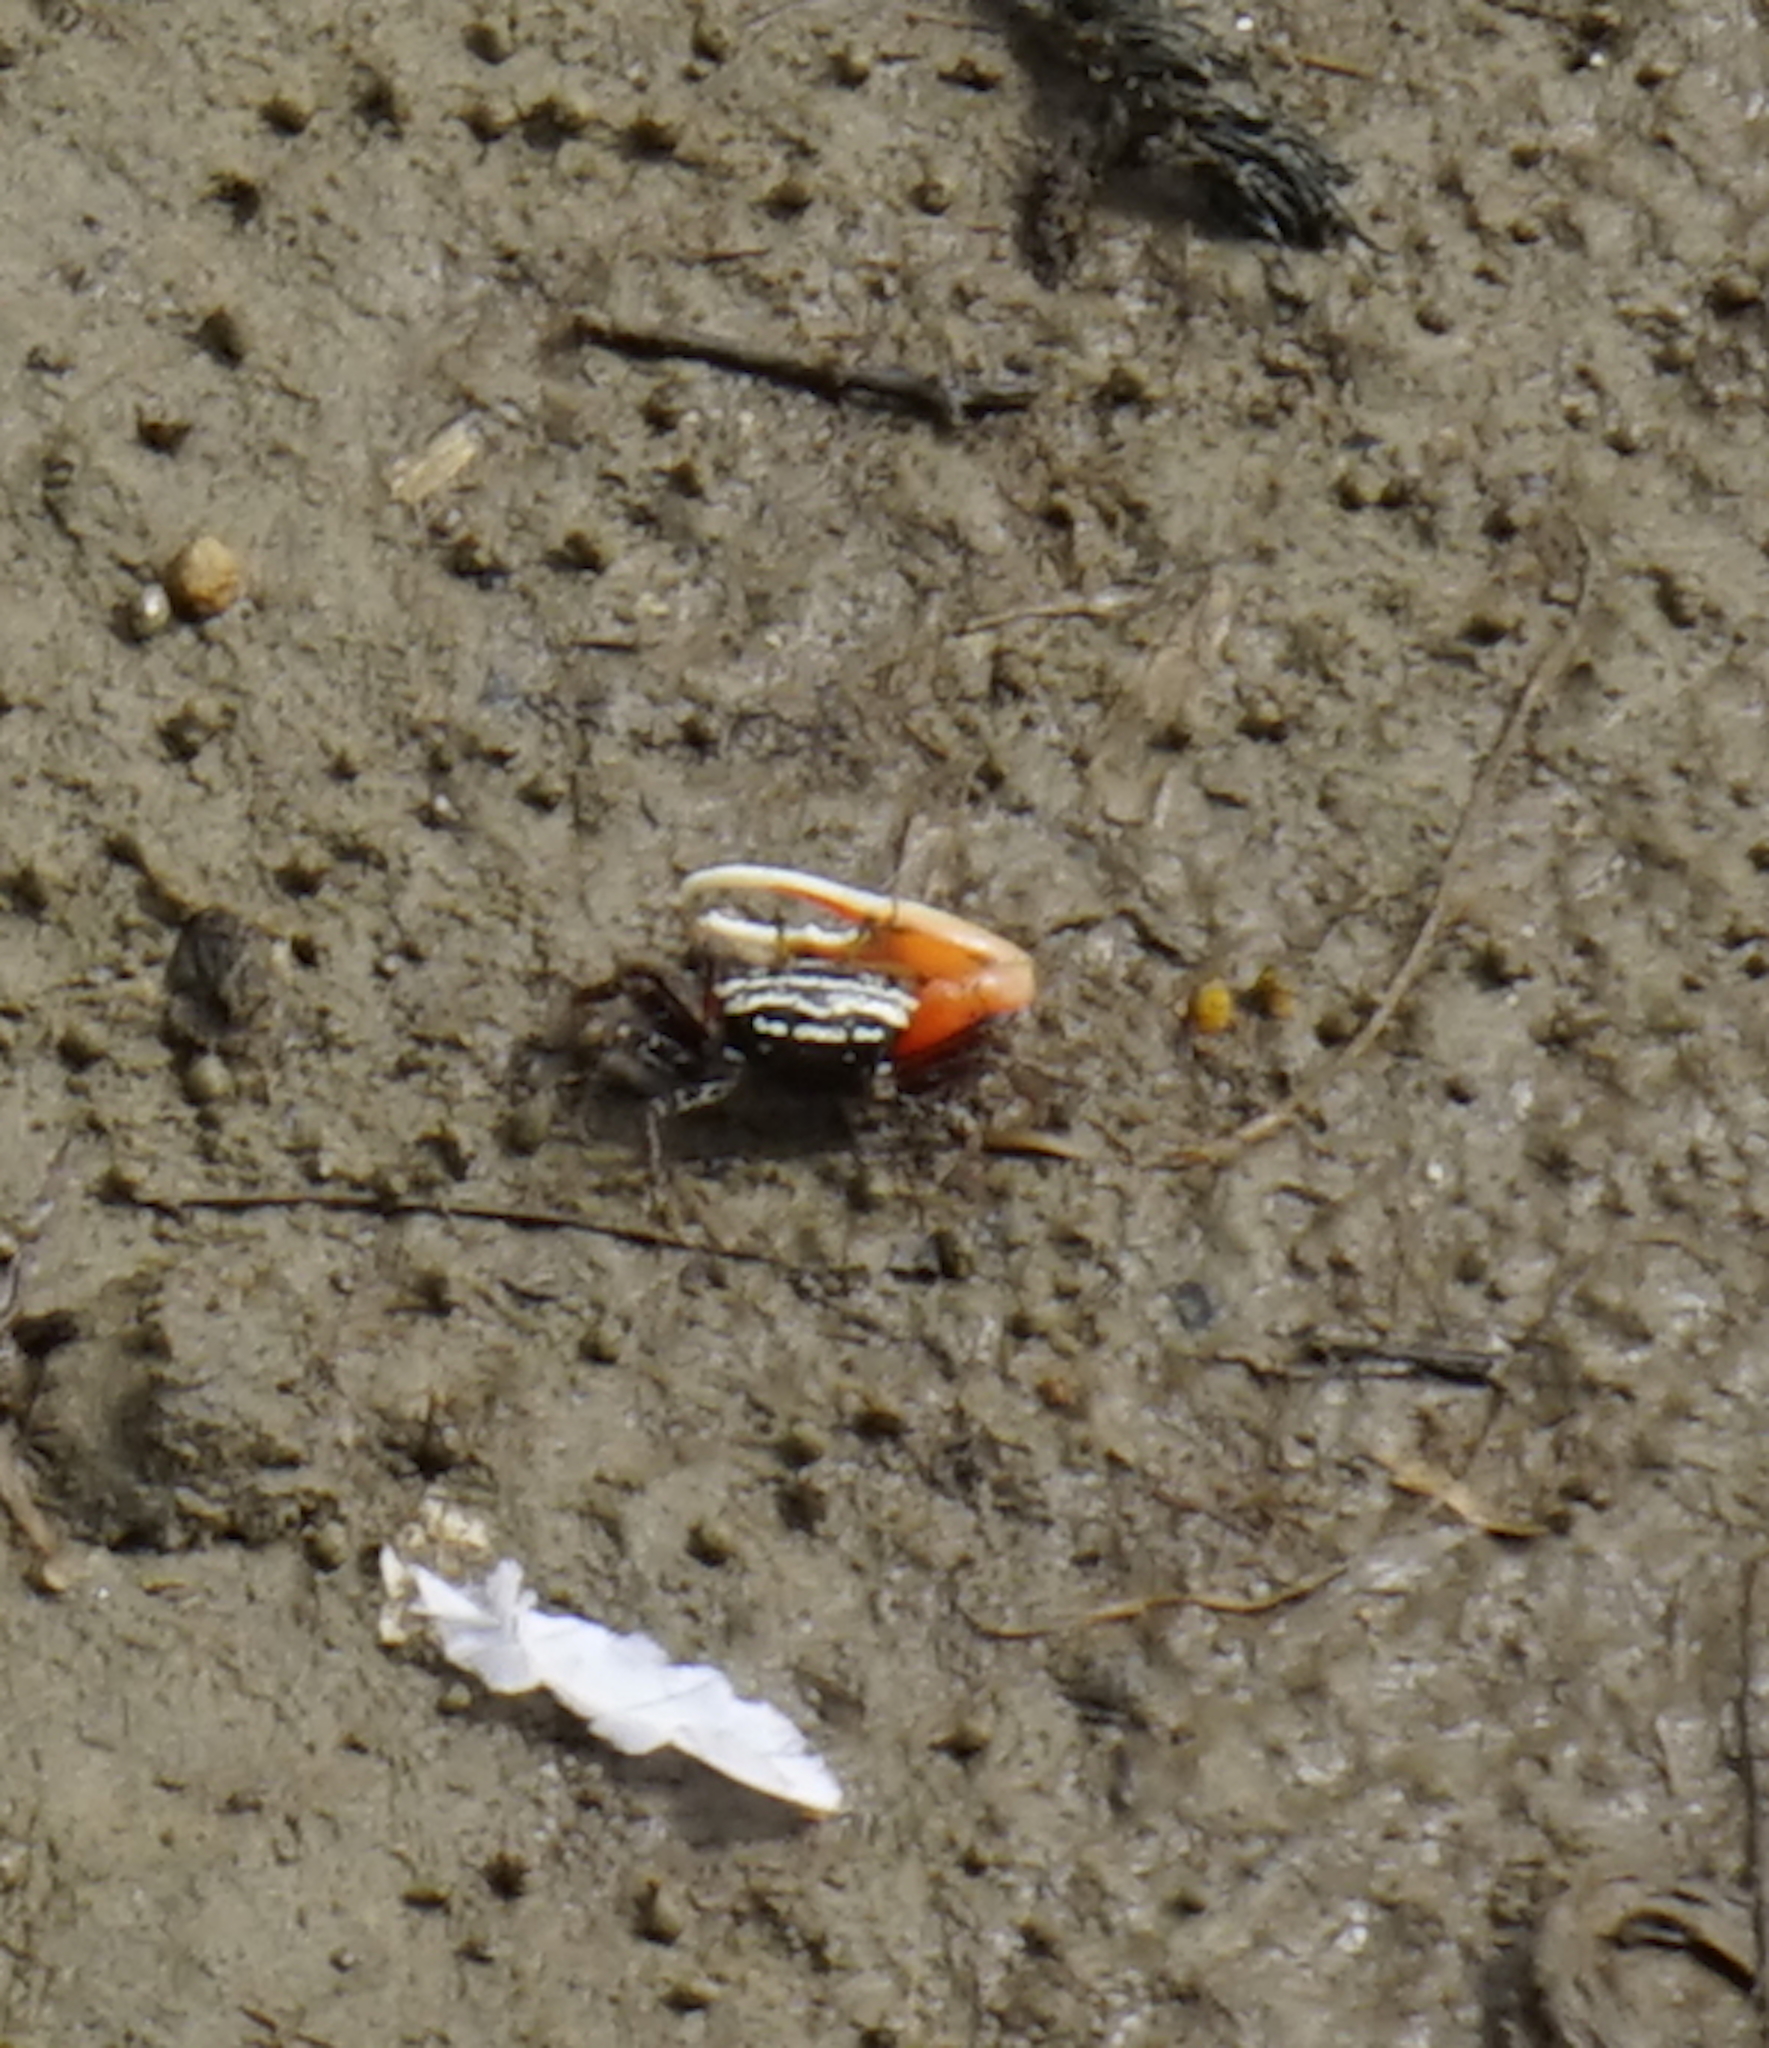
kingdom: Animalia
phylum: Arthropoda
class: Malacostraca
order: Decapoda
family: Ocypodidae
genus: Austruca
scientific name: Austruca annulipes
